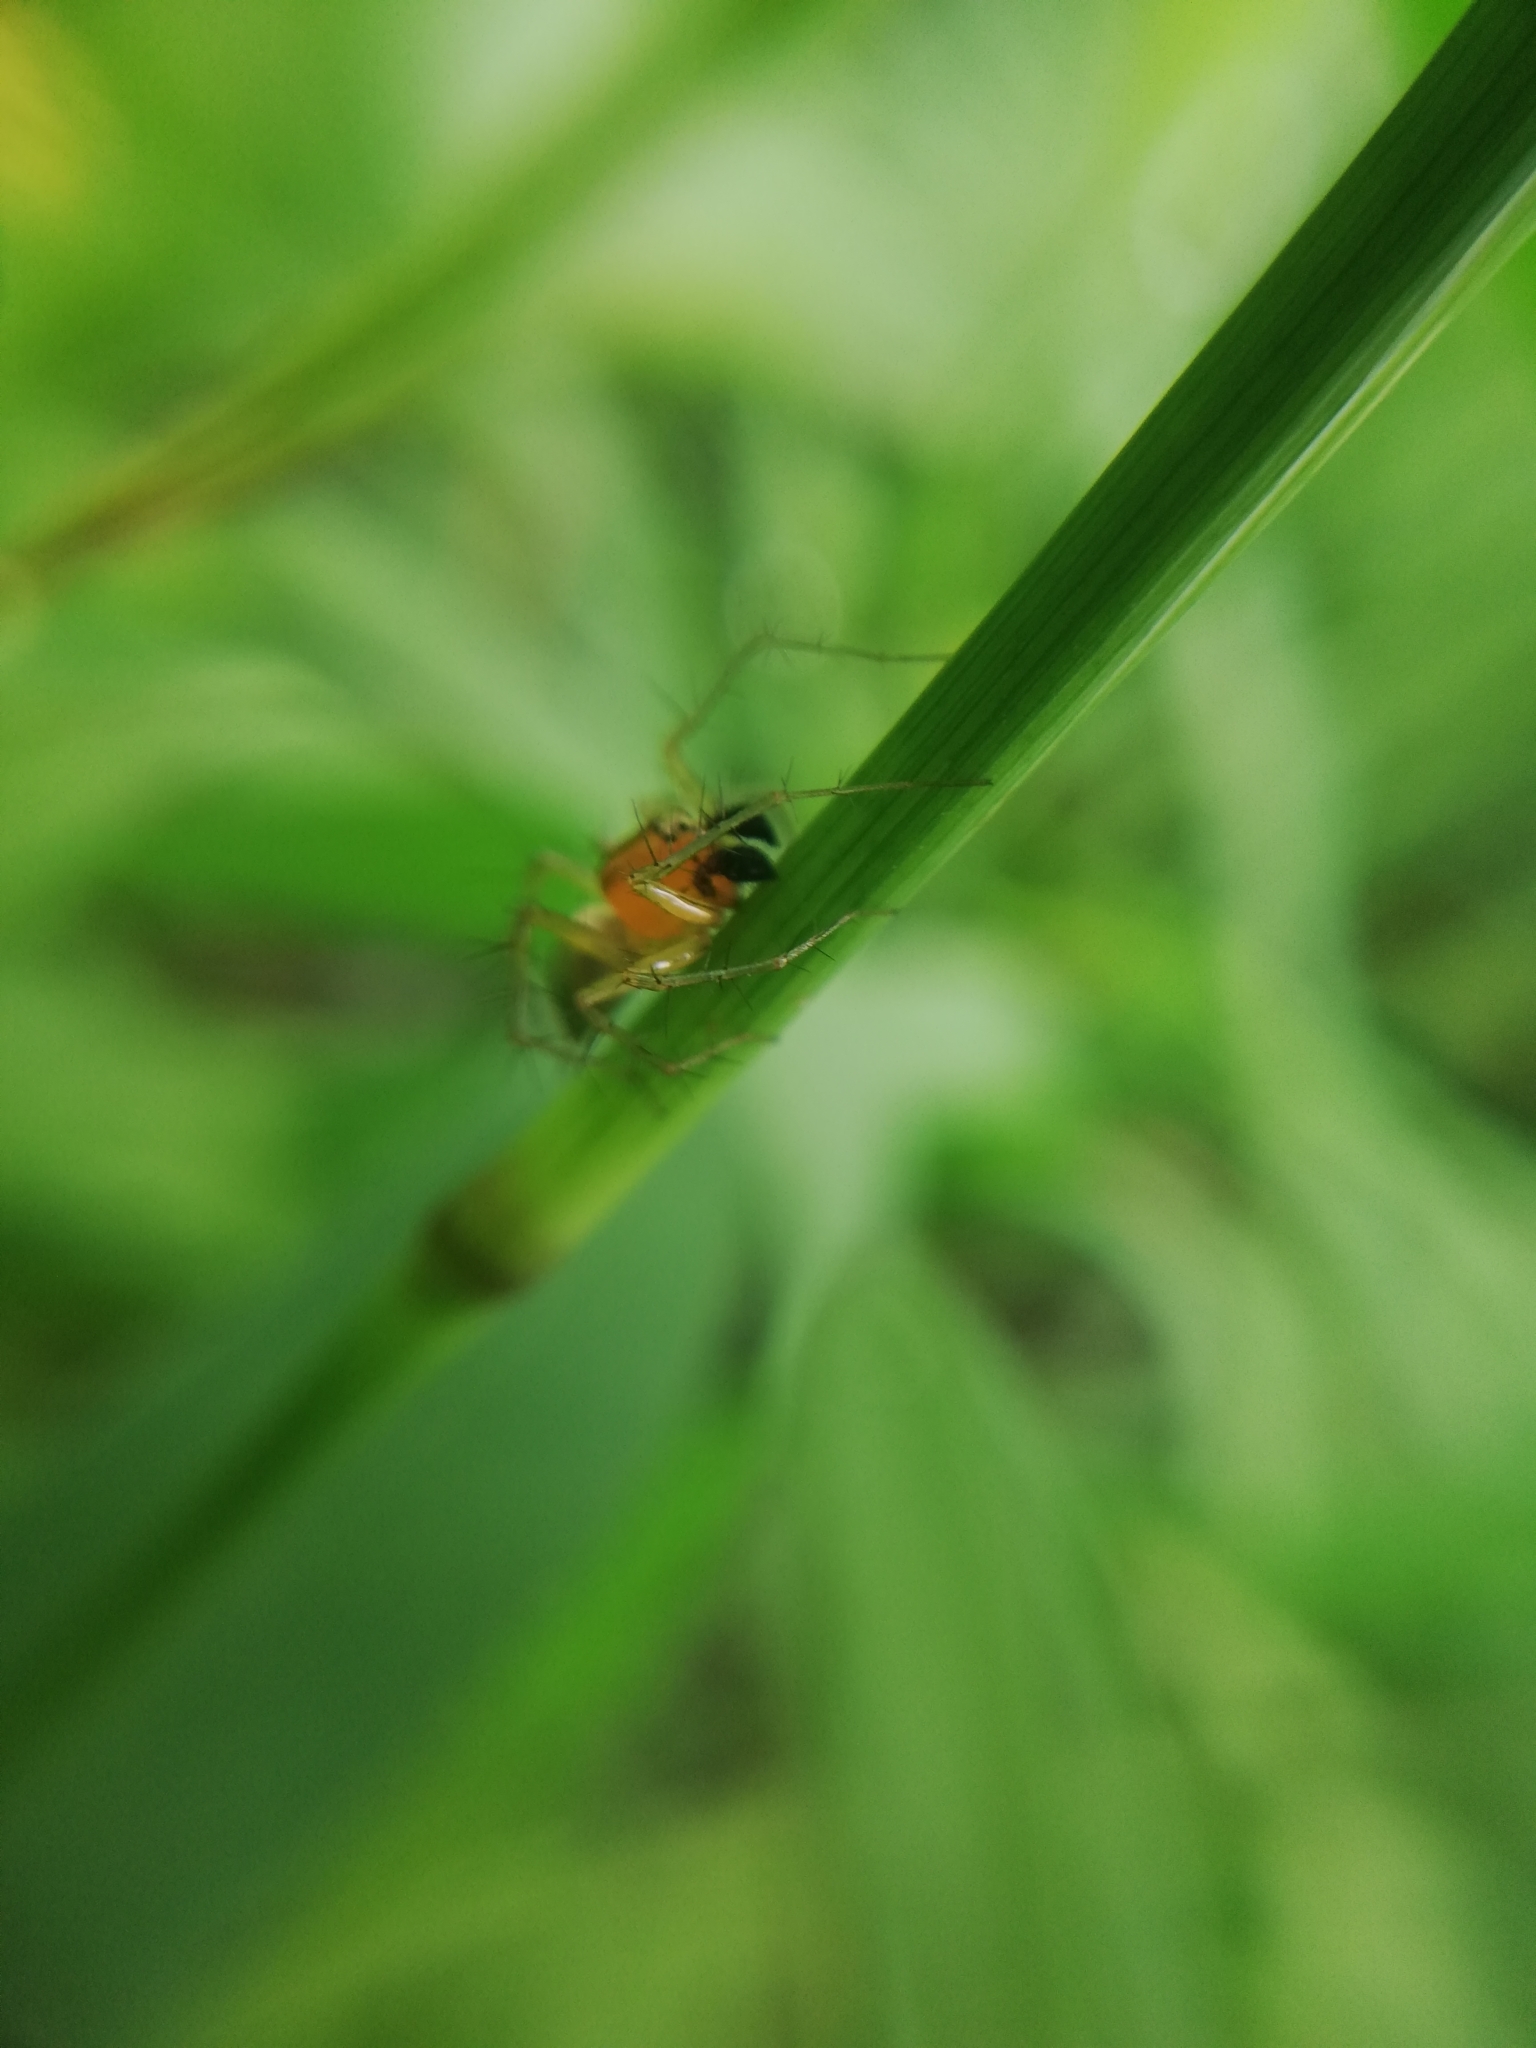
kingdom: Animalia
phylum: Arthropoda
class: Arachnida
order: Araneae
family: Oxyopidae
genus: Oxyopes
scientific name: Oxyopes salticus
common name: Lynx spiders
